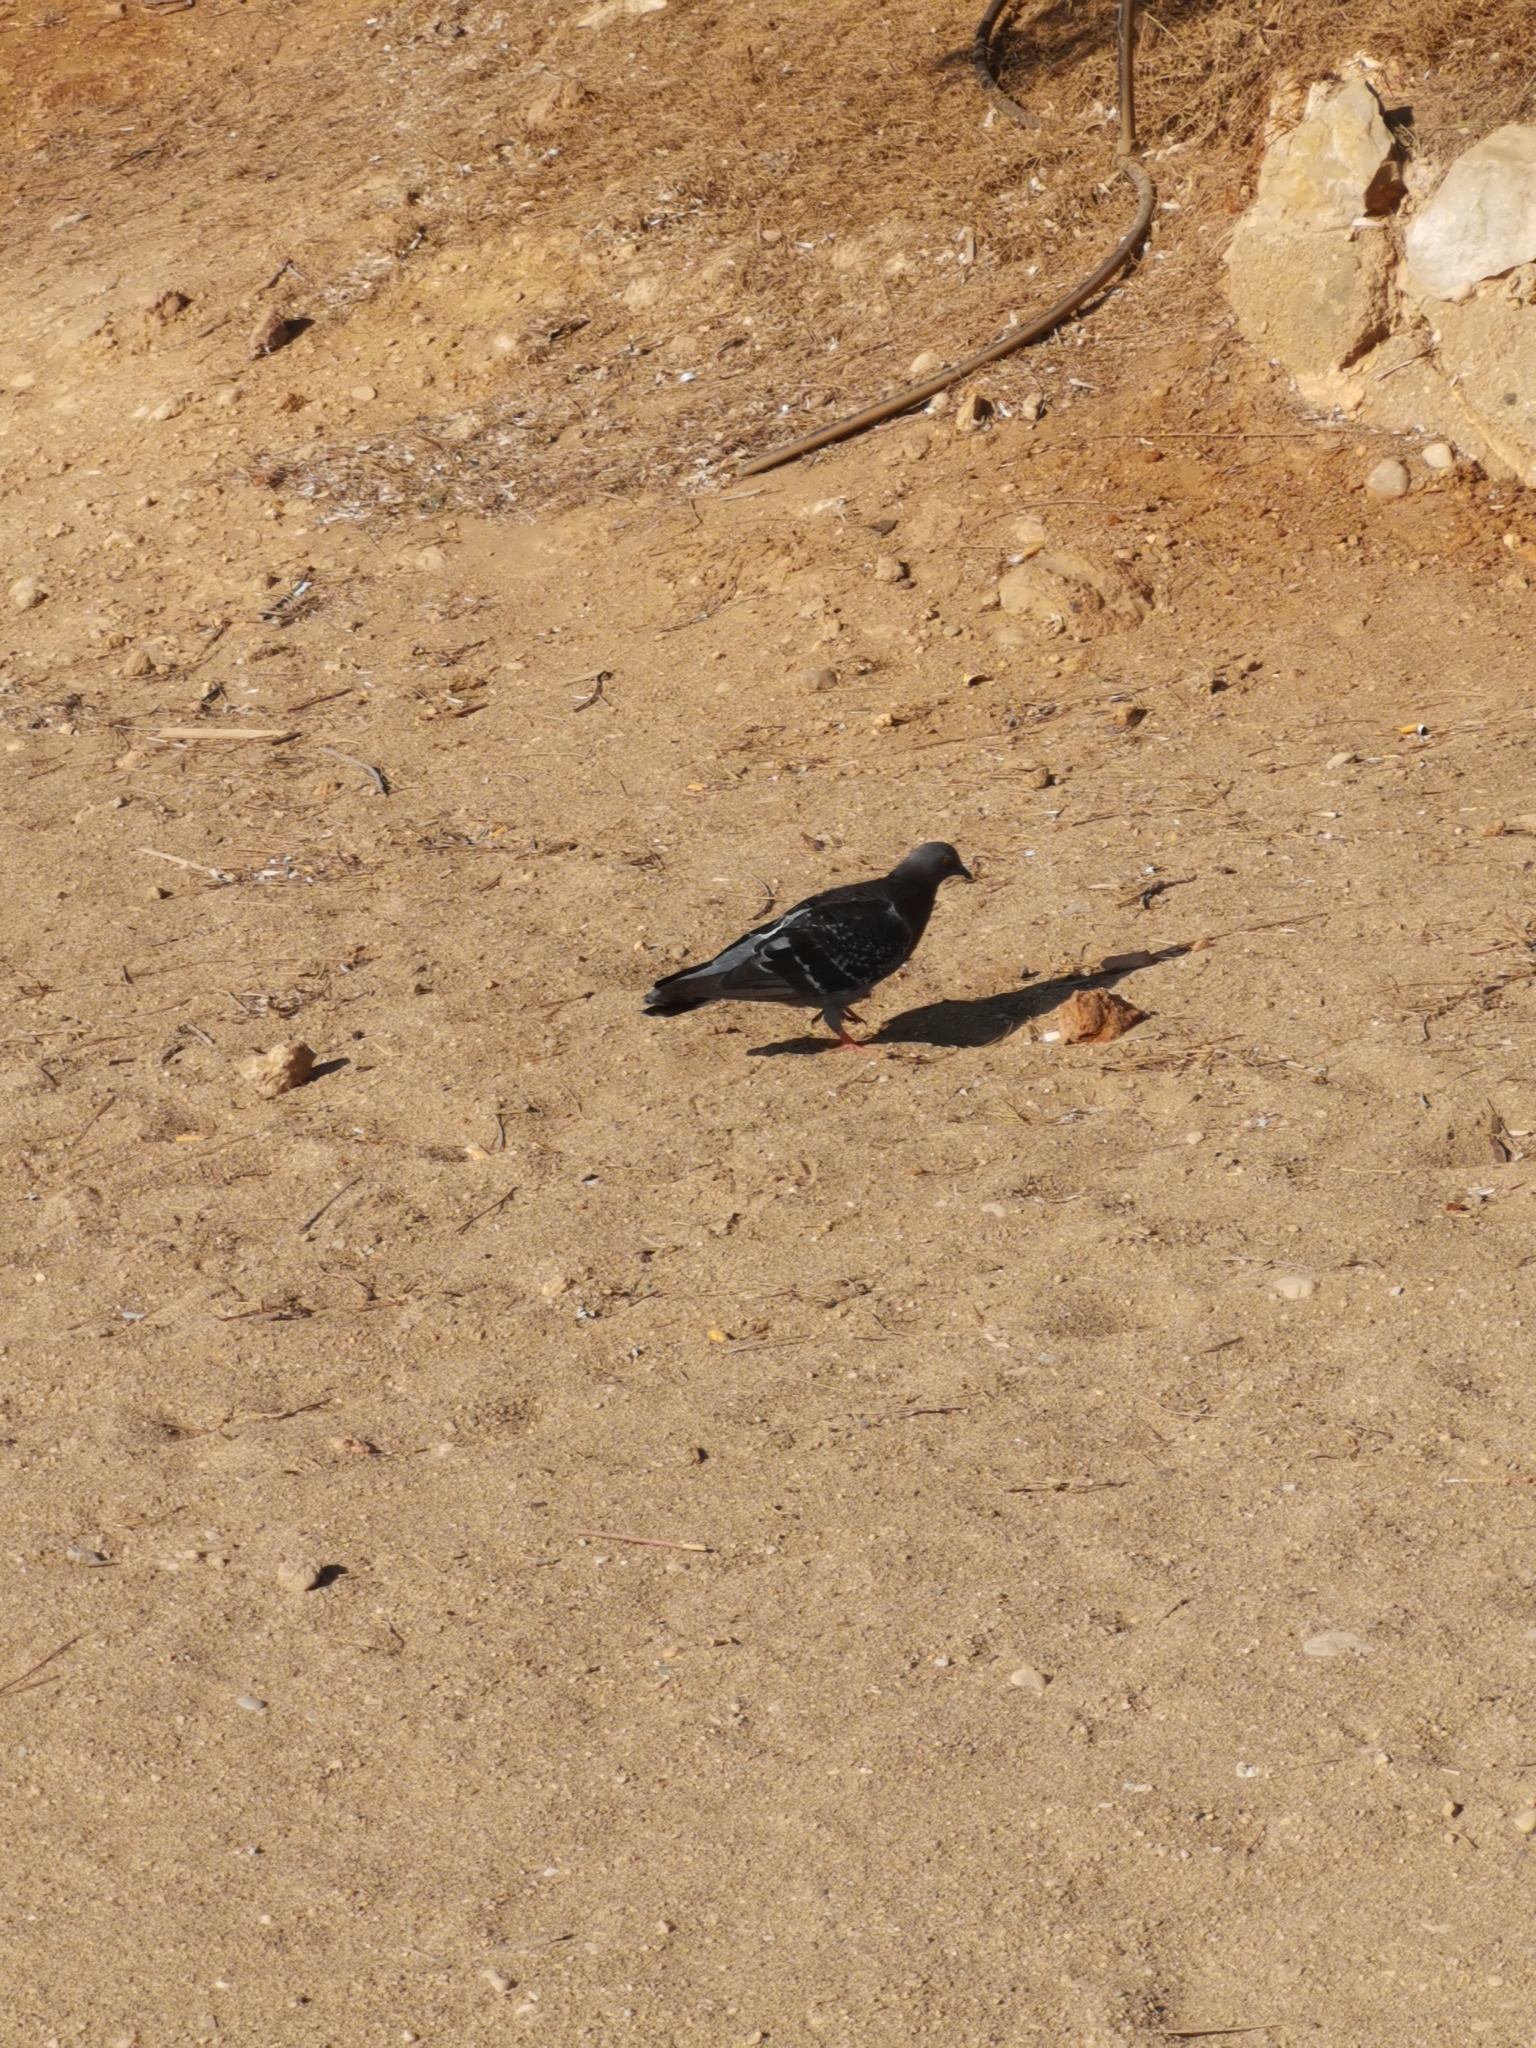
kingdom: Animalia
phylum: Chordata
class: Aves
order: Columbiformes
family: Columbidae
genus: Columba
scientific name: Columba livia
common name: Rock pigeon
